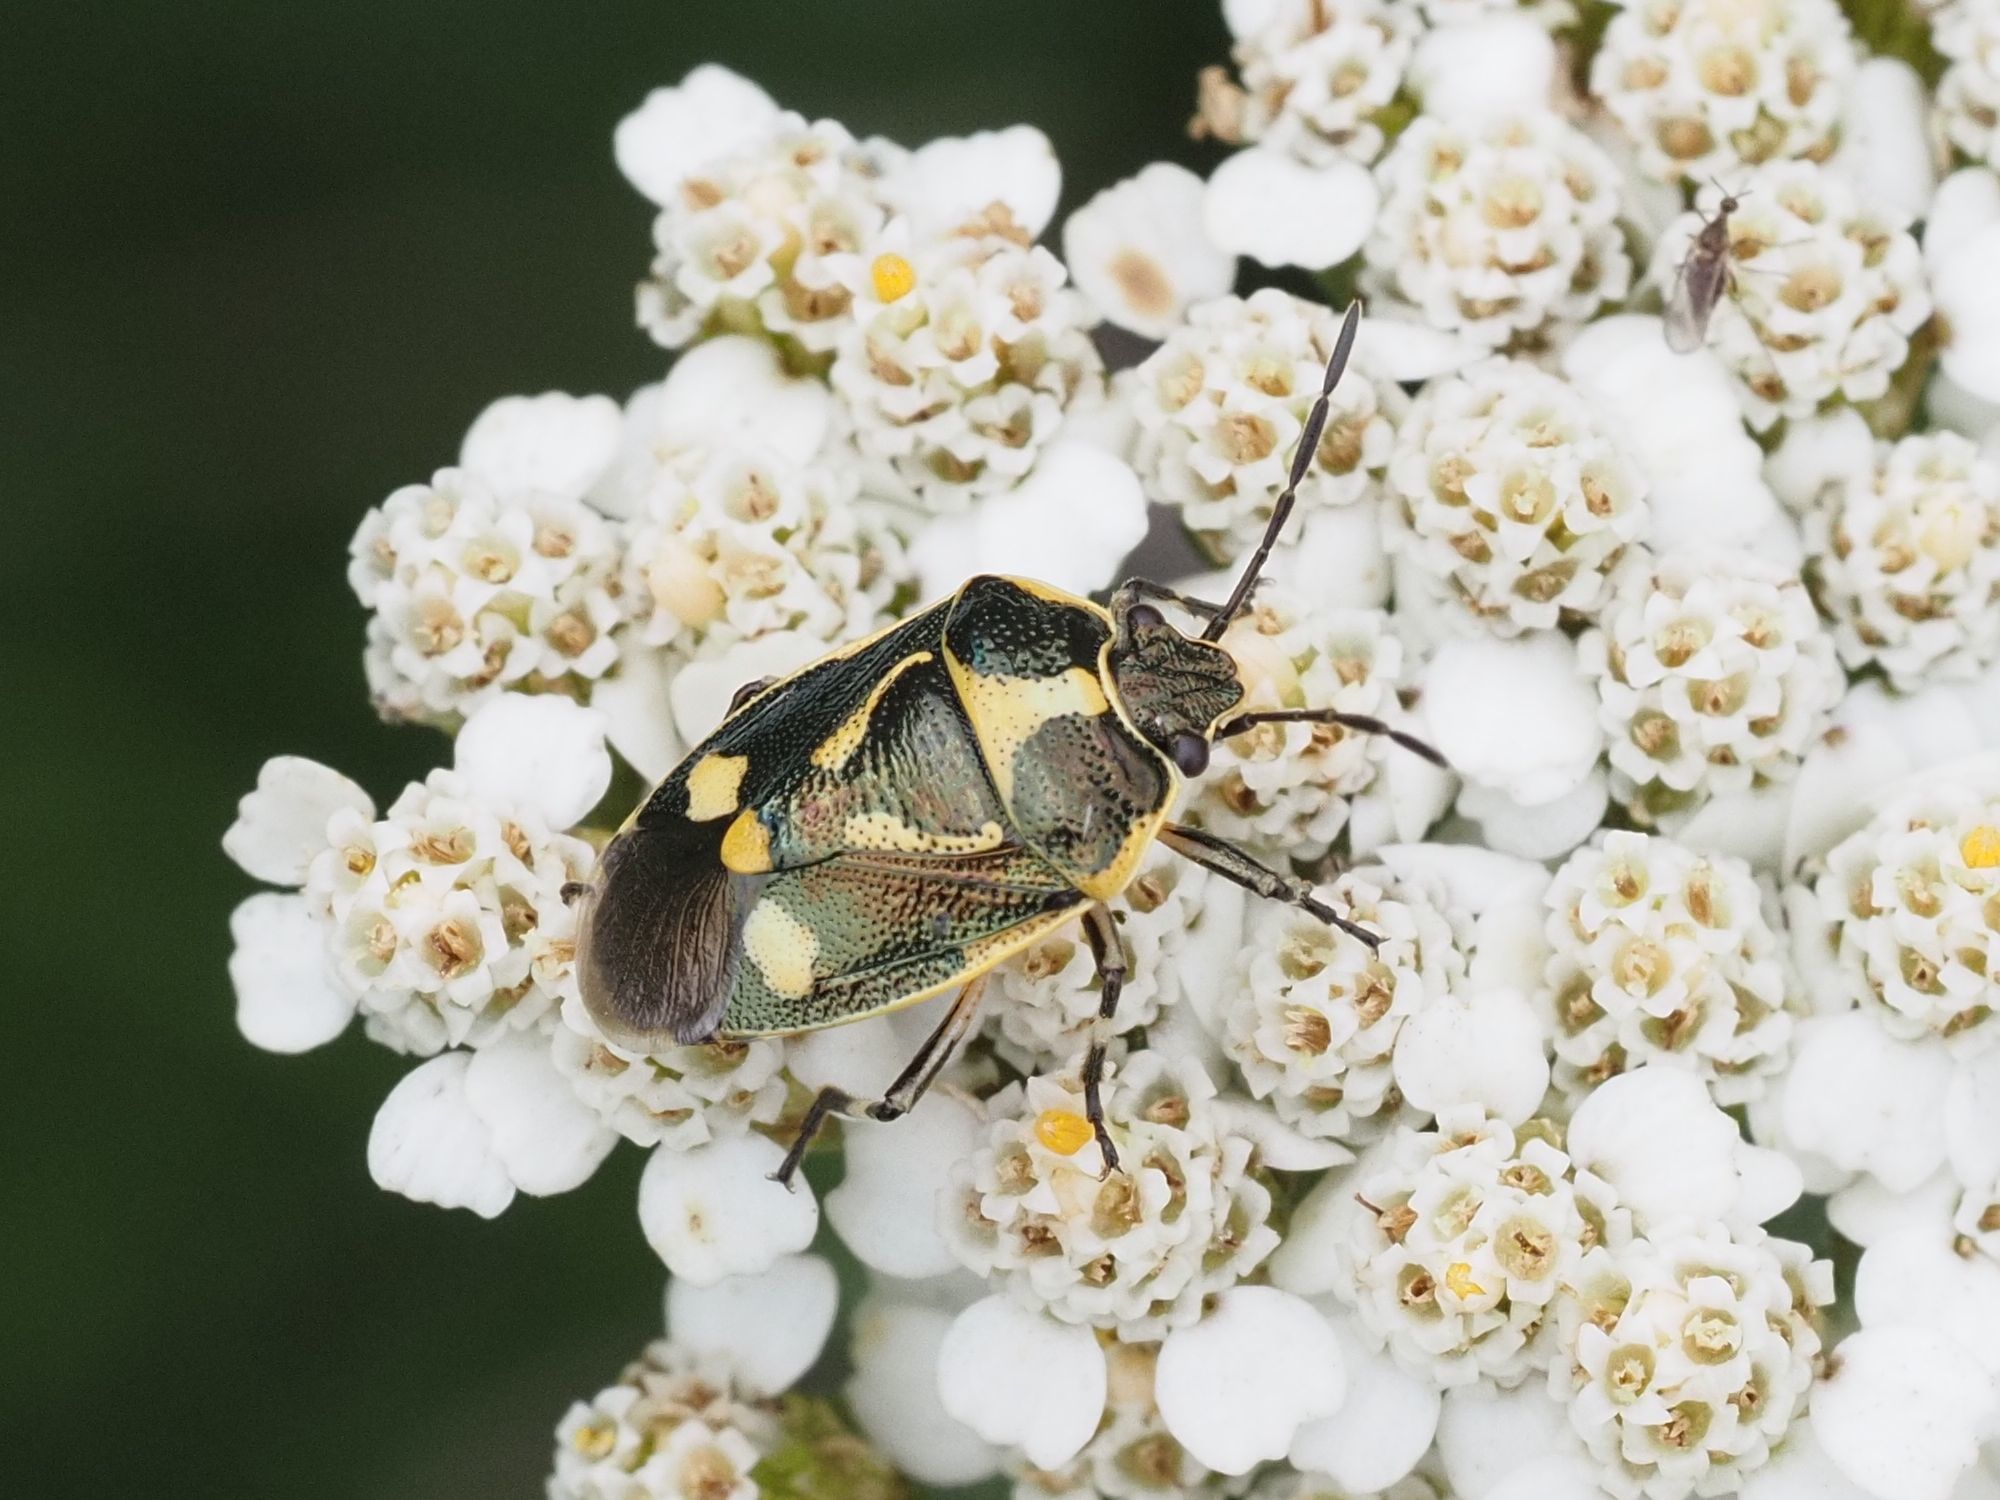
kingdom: Animalia
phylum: Arthropoda
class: Insecta
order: Hemiptera
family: Pentatomidae
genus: Eurydema
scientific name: Eurydema oleracea
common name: Cabbage bug
